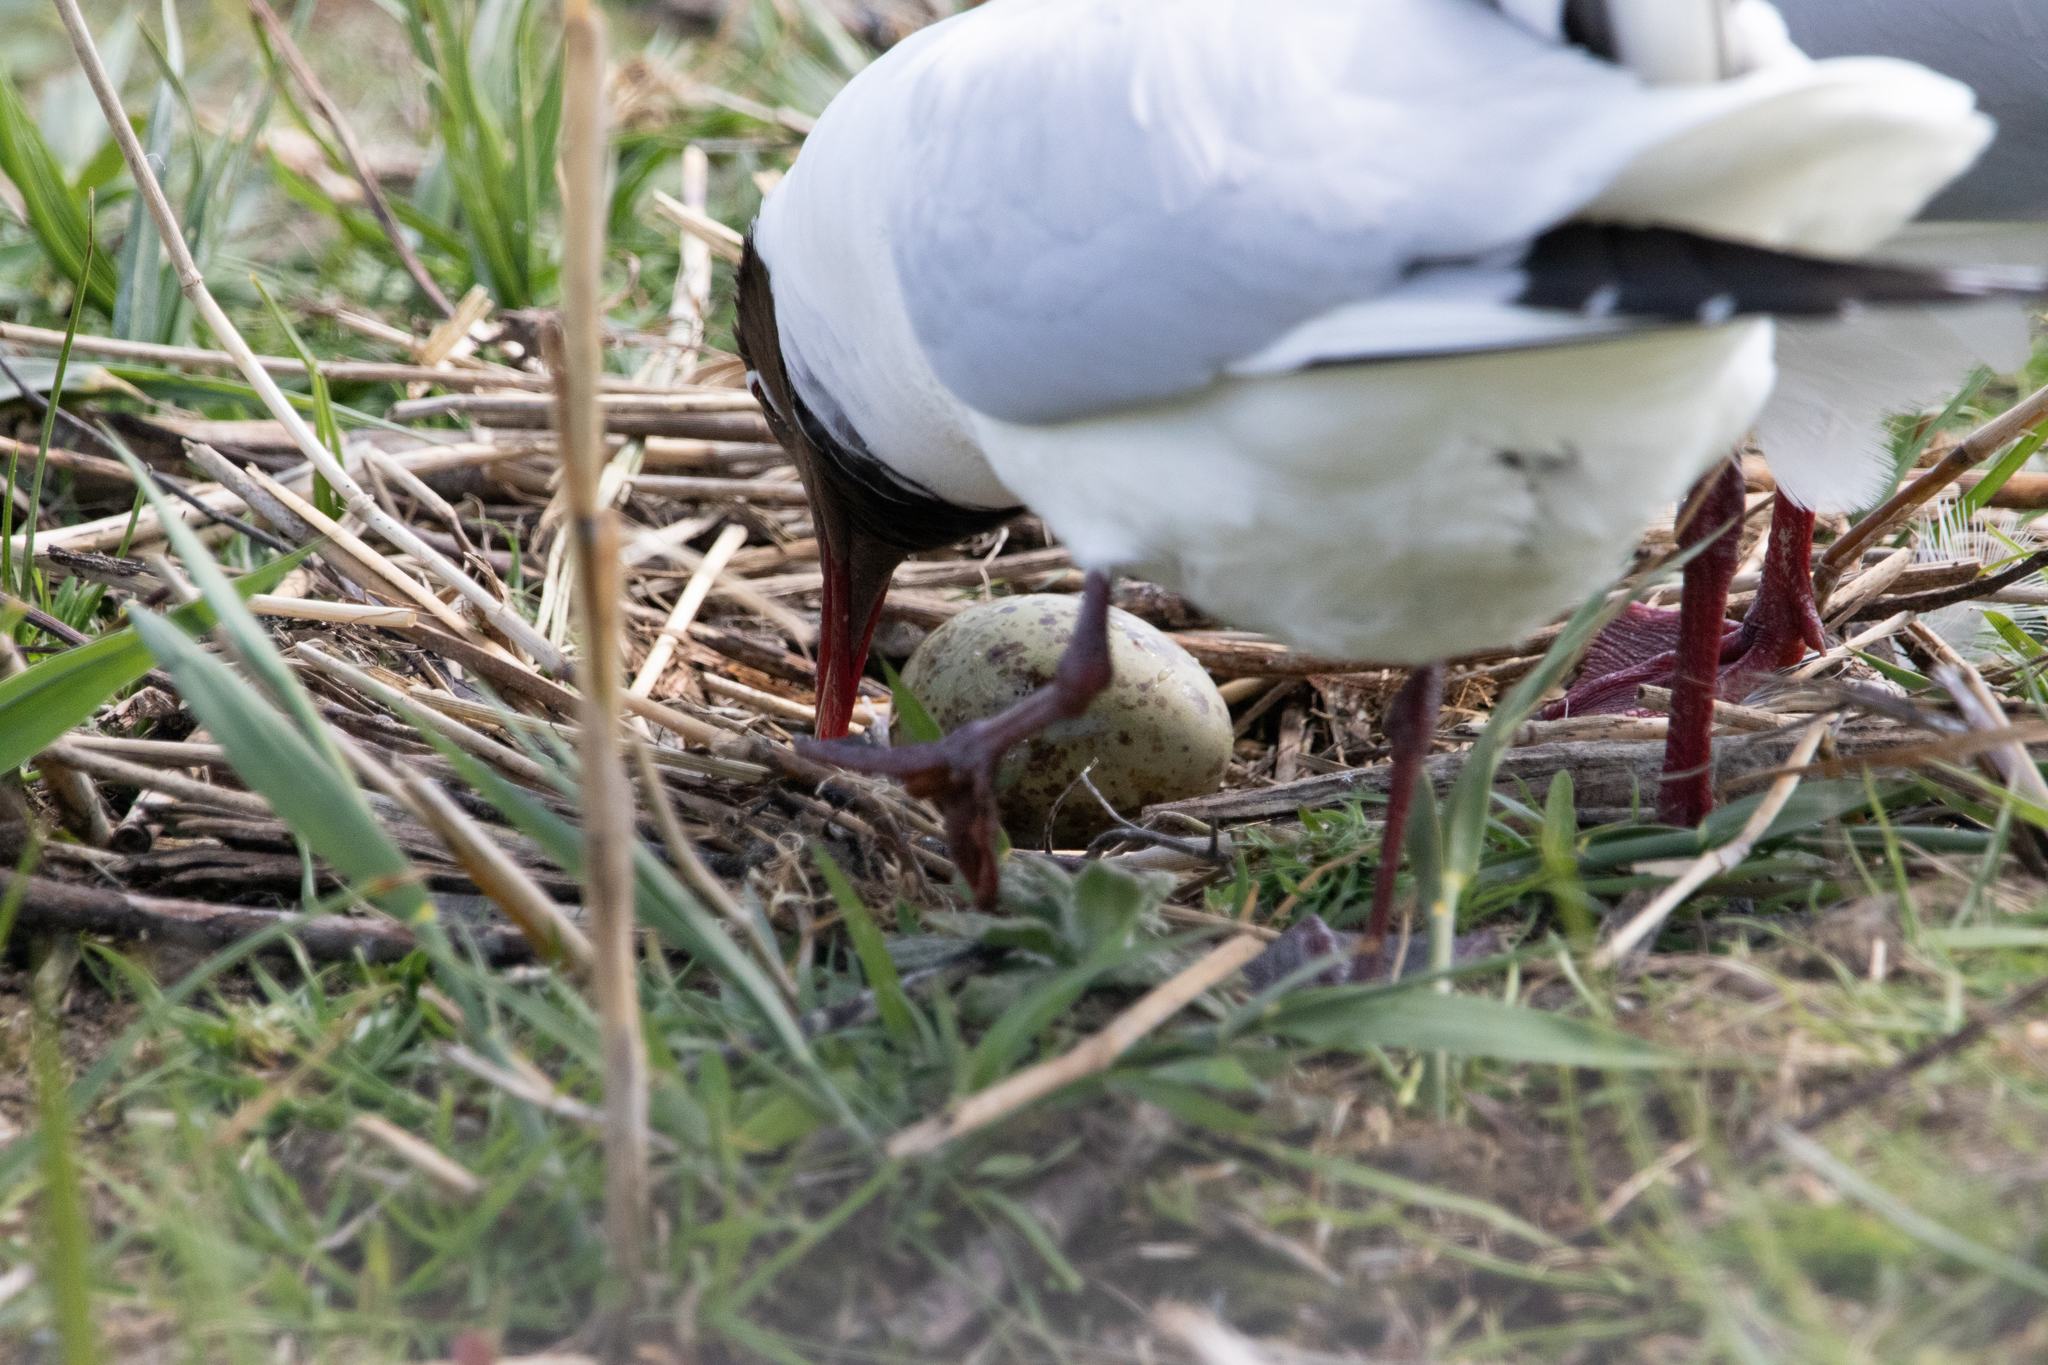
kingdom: Animalia
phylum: Chordata
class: Aves
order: Charadriiformes
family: Laridae
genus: Chroicocephalus
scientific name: Chroicocephalus ridibundus
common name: Black-headed gull
